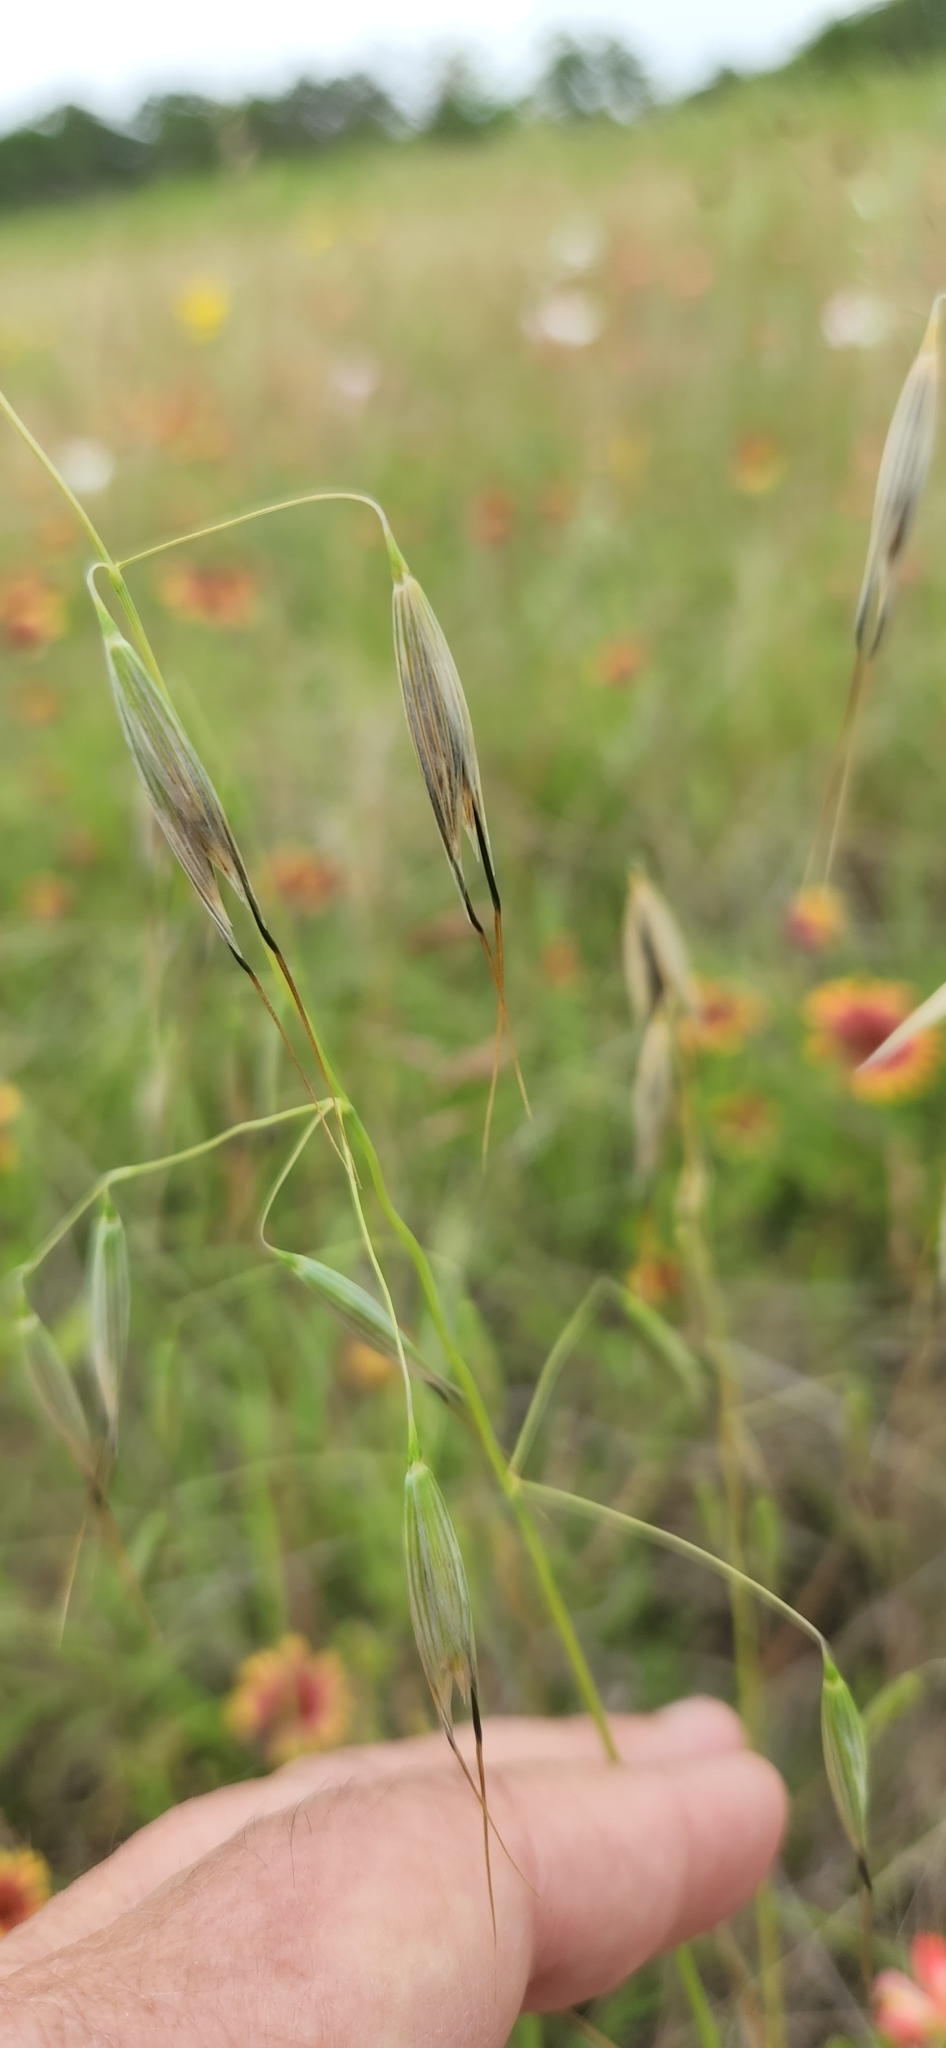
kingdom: Plantae
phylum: Tracheophyta
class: Liliopsida
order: Poales
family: Poaceae
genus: Avena
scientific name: Avena fatua
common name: Wild oat
